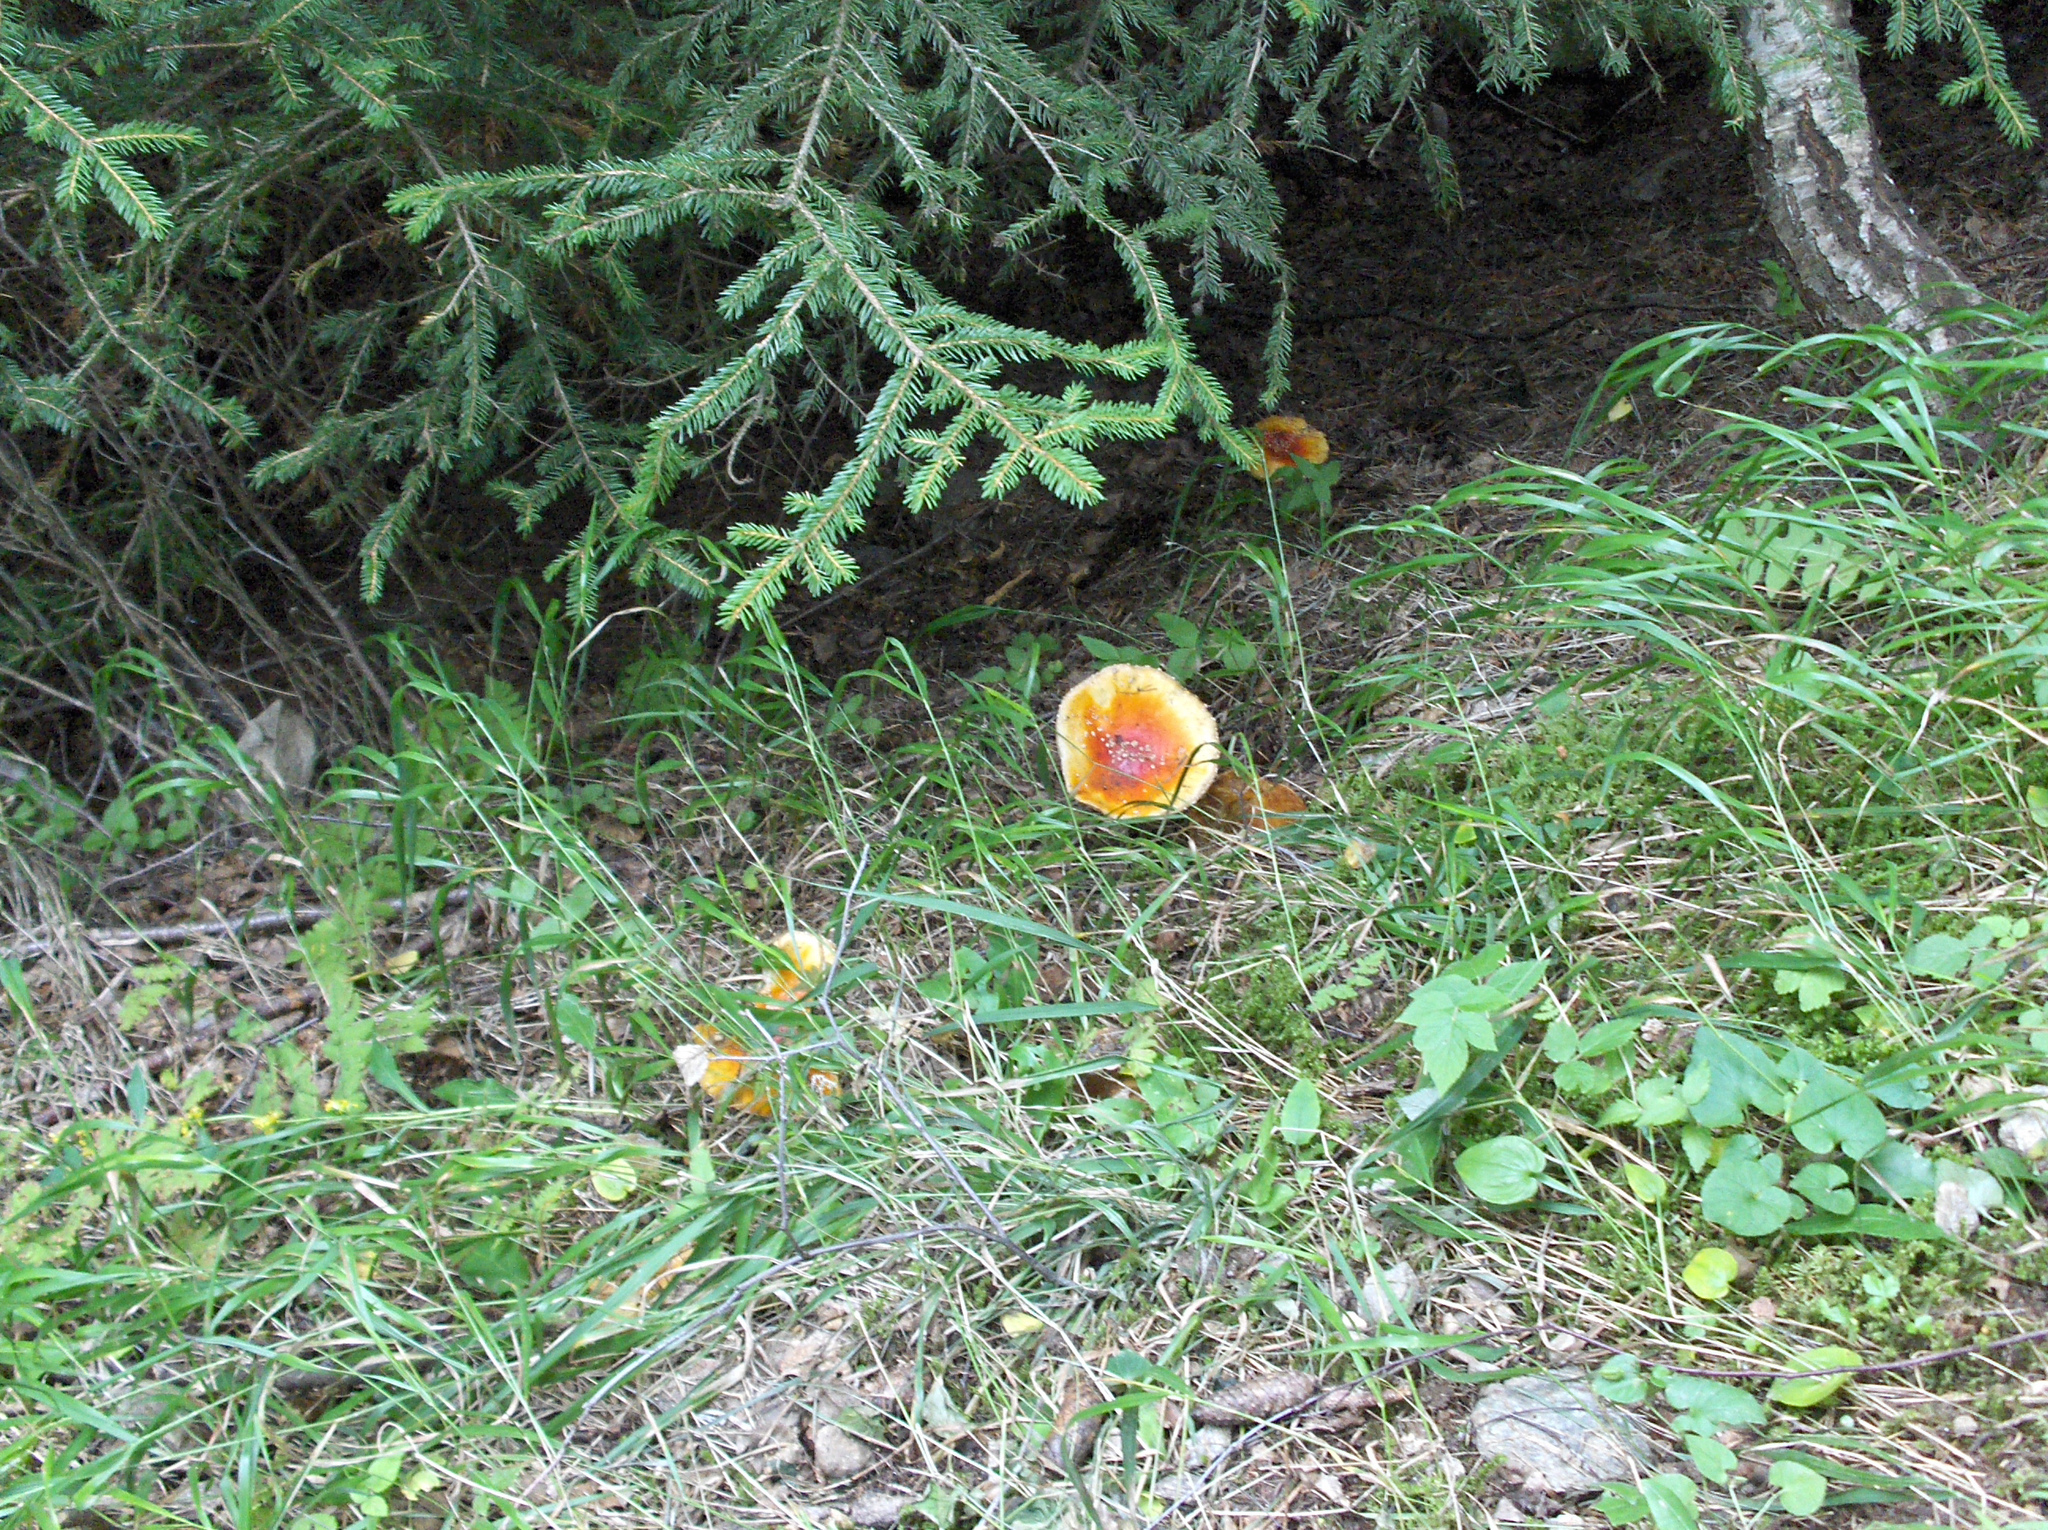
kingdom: Fungi
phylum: Basidiomycota
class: Agaricomycetes
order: Agaricales
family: Amanitaceae
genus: Amanita
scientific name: Amanita muscaria
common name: Fly agaric
